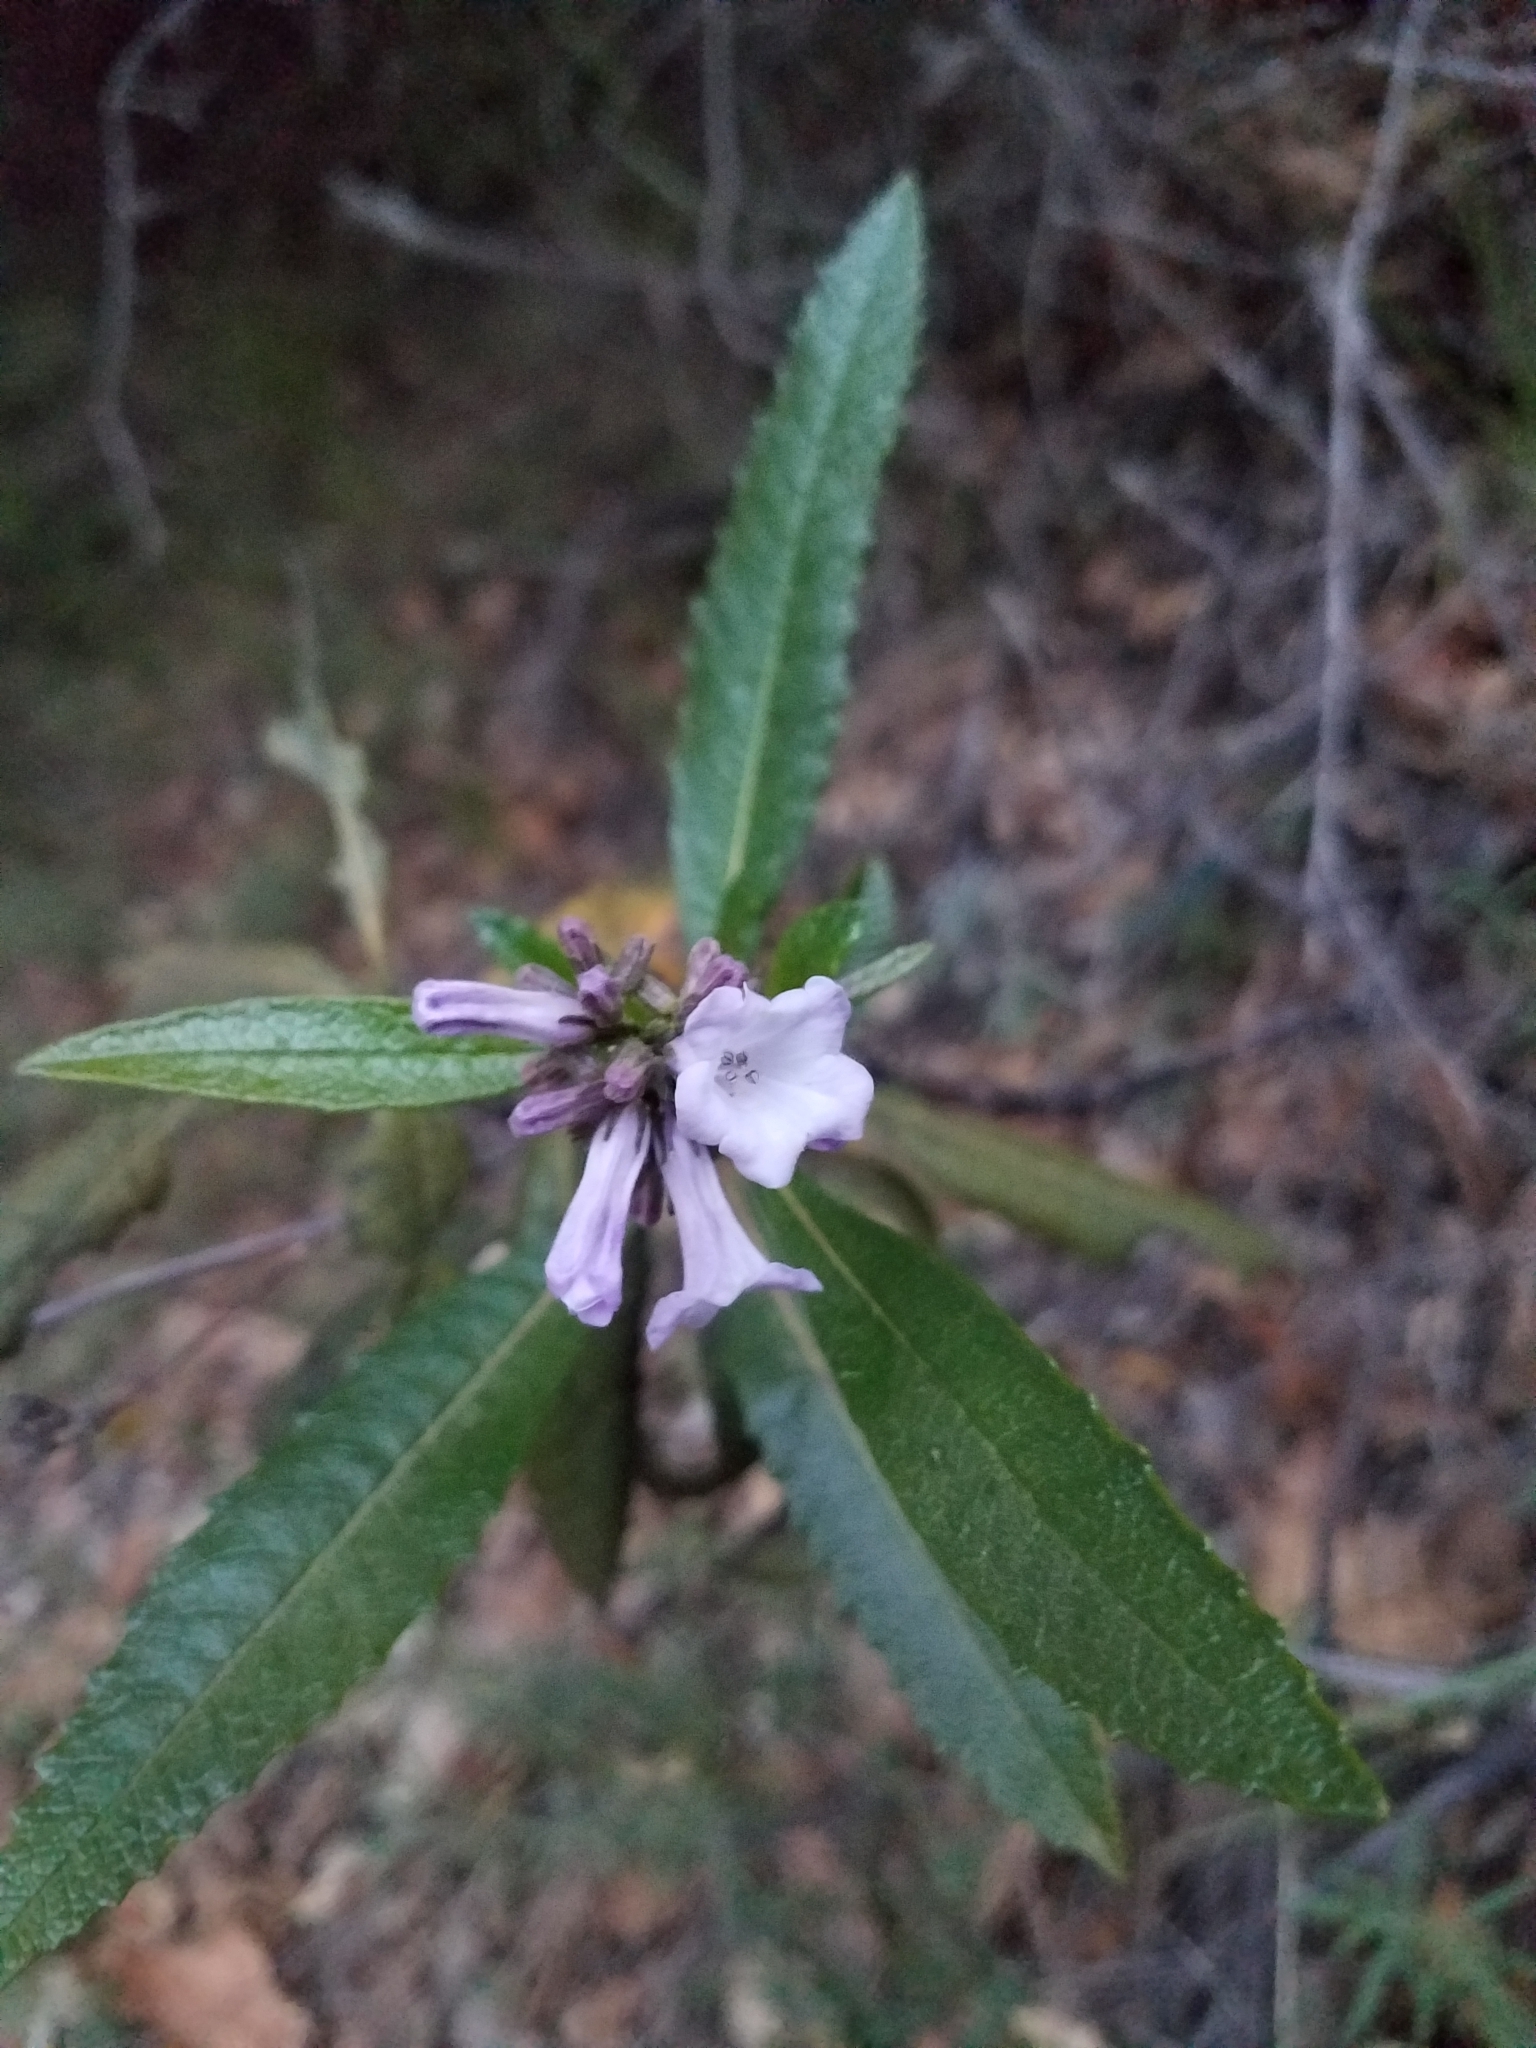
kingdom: Plantae
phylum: Tracheophyta
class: Magnoliopsida
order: Boraginales
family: Namaceae
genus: Eriodictyon
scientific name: Eriodictyon californicum
